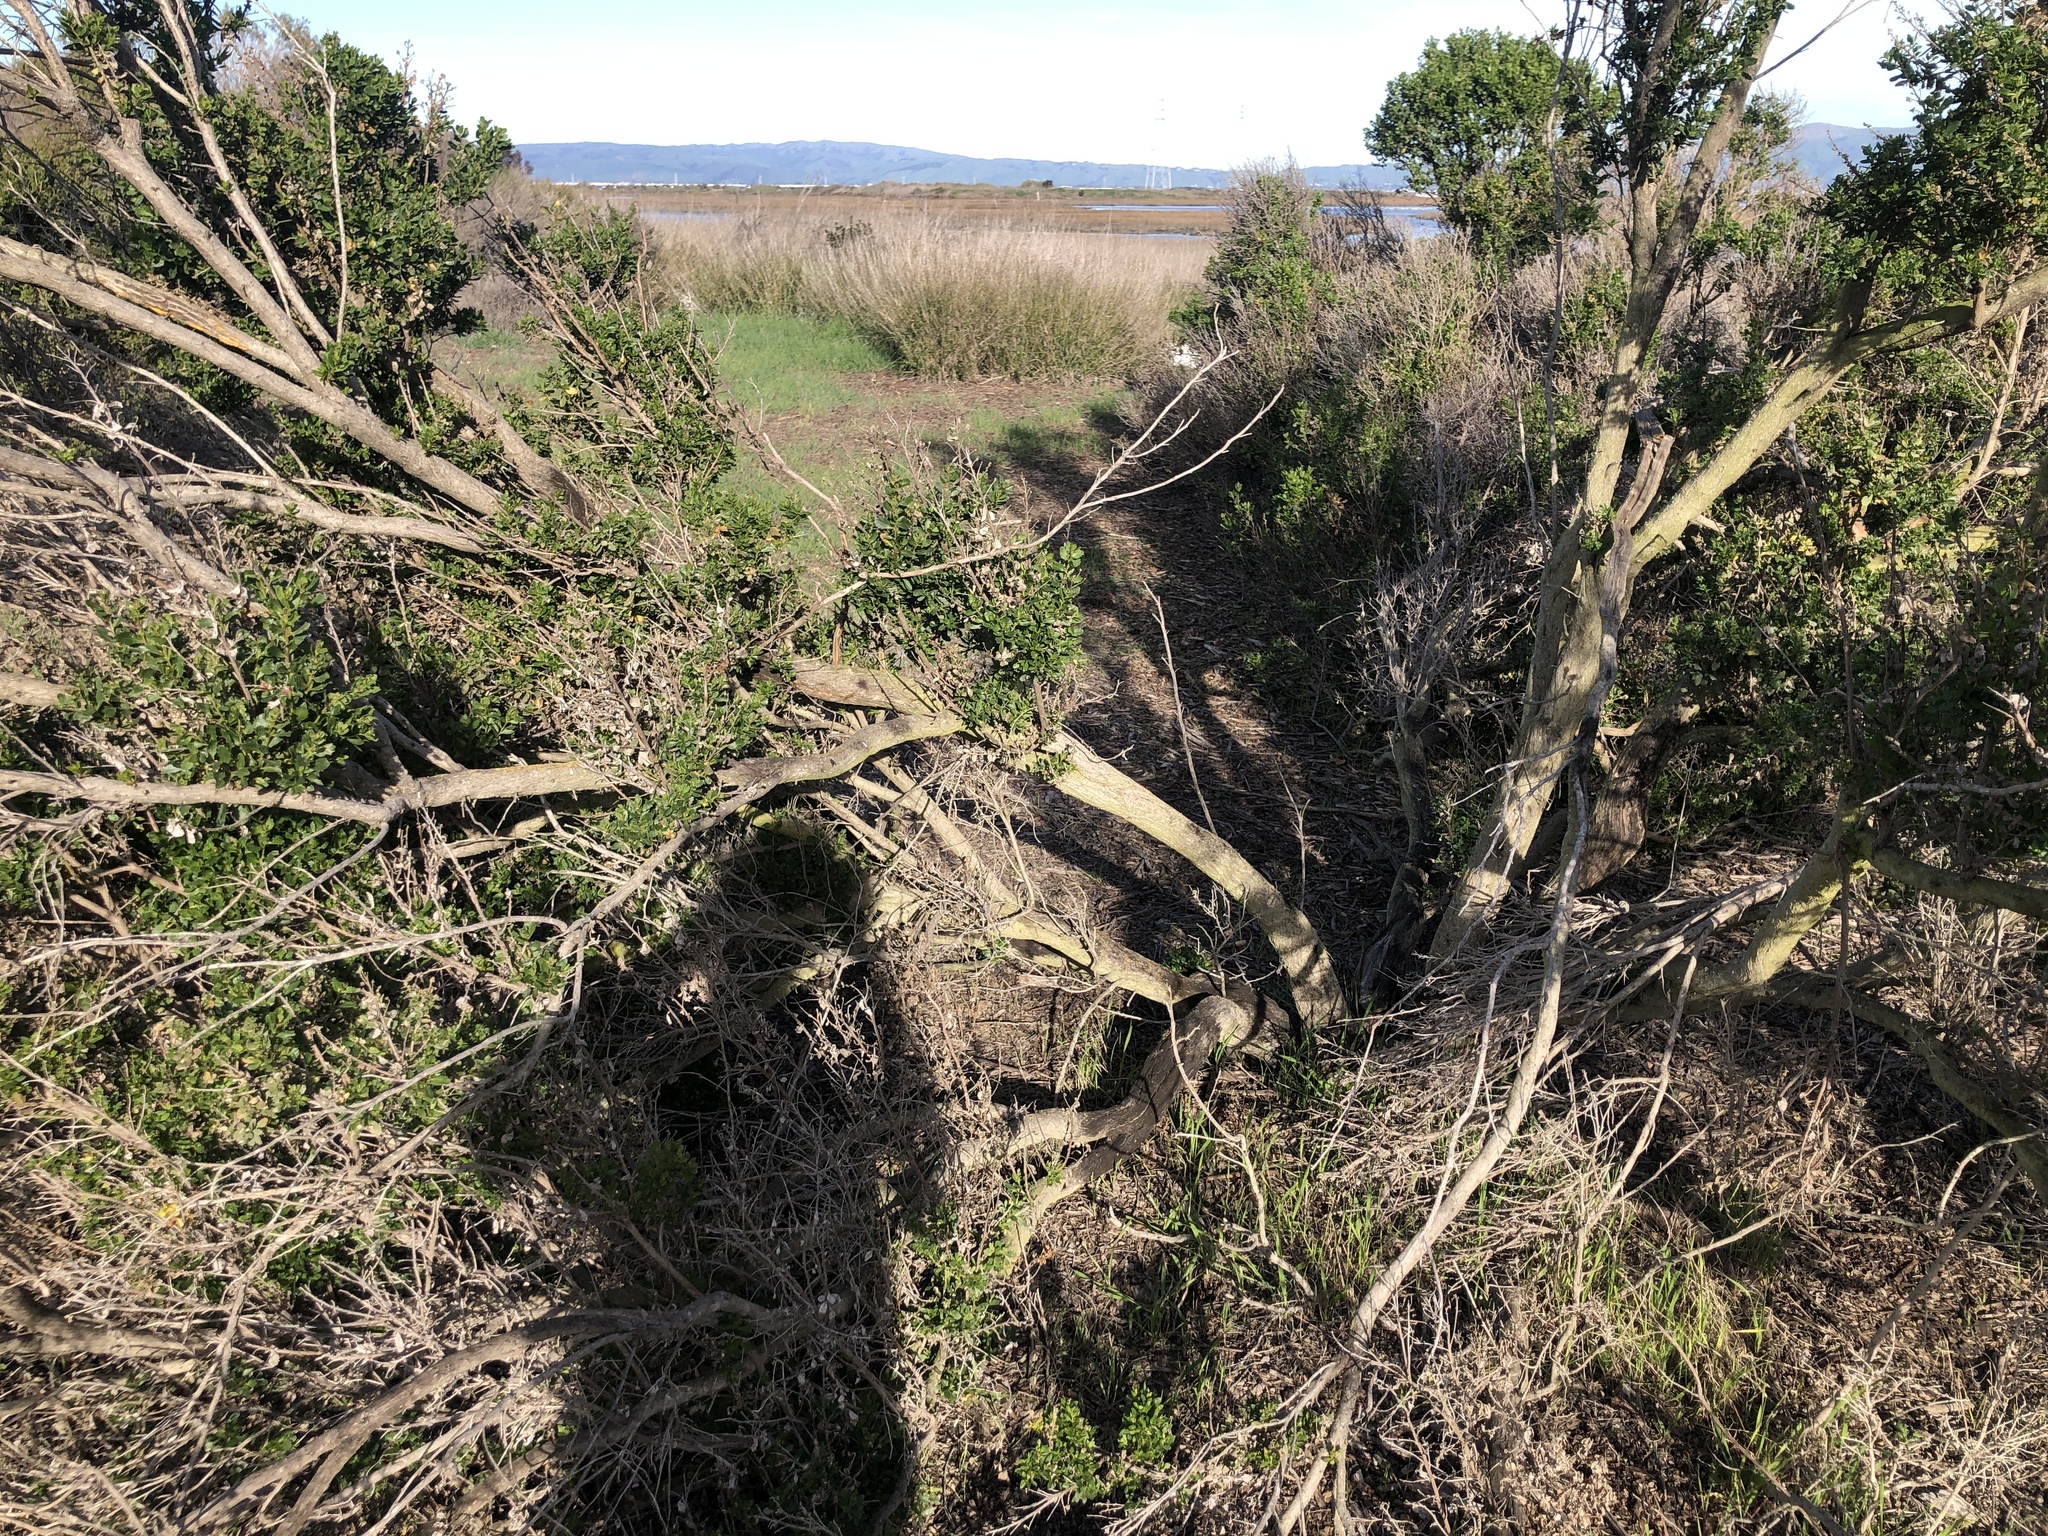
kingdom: Fungi
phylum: Basidiomycota
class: Pucciniomycetes
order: Pucciniales
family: Pucciniaceae
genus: Eriosporangium
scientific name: Eriosporangium evadens
